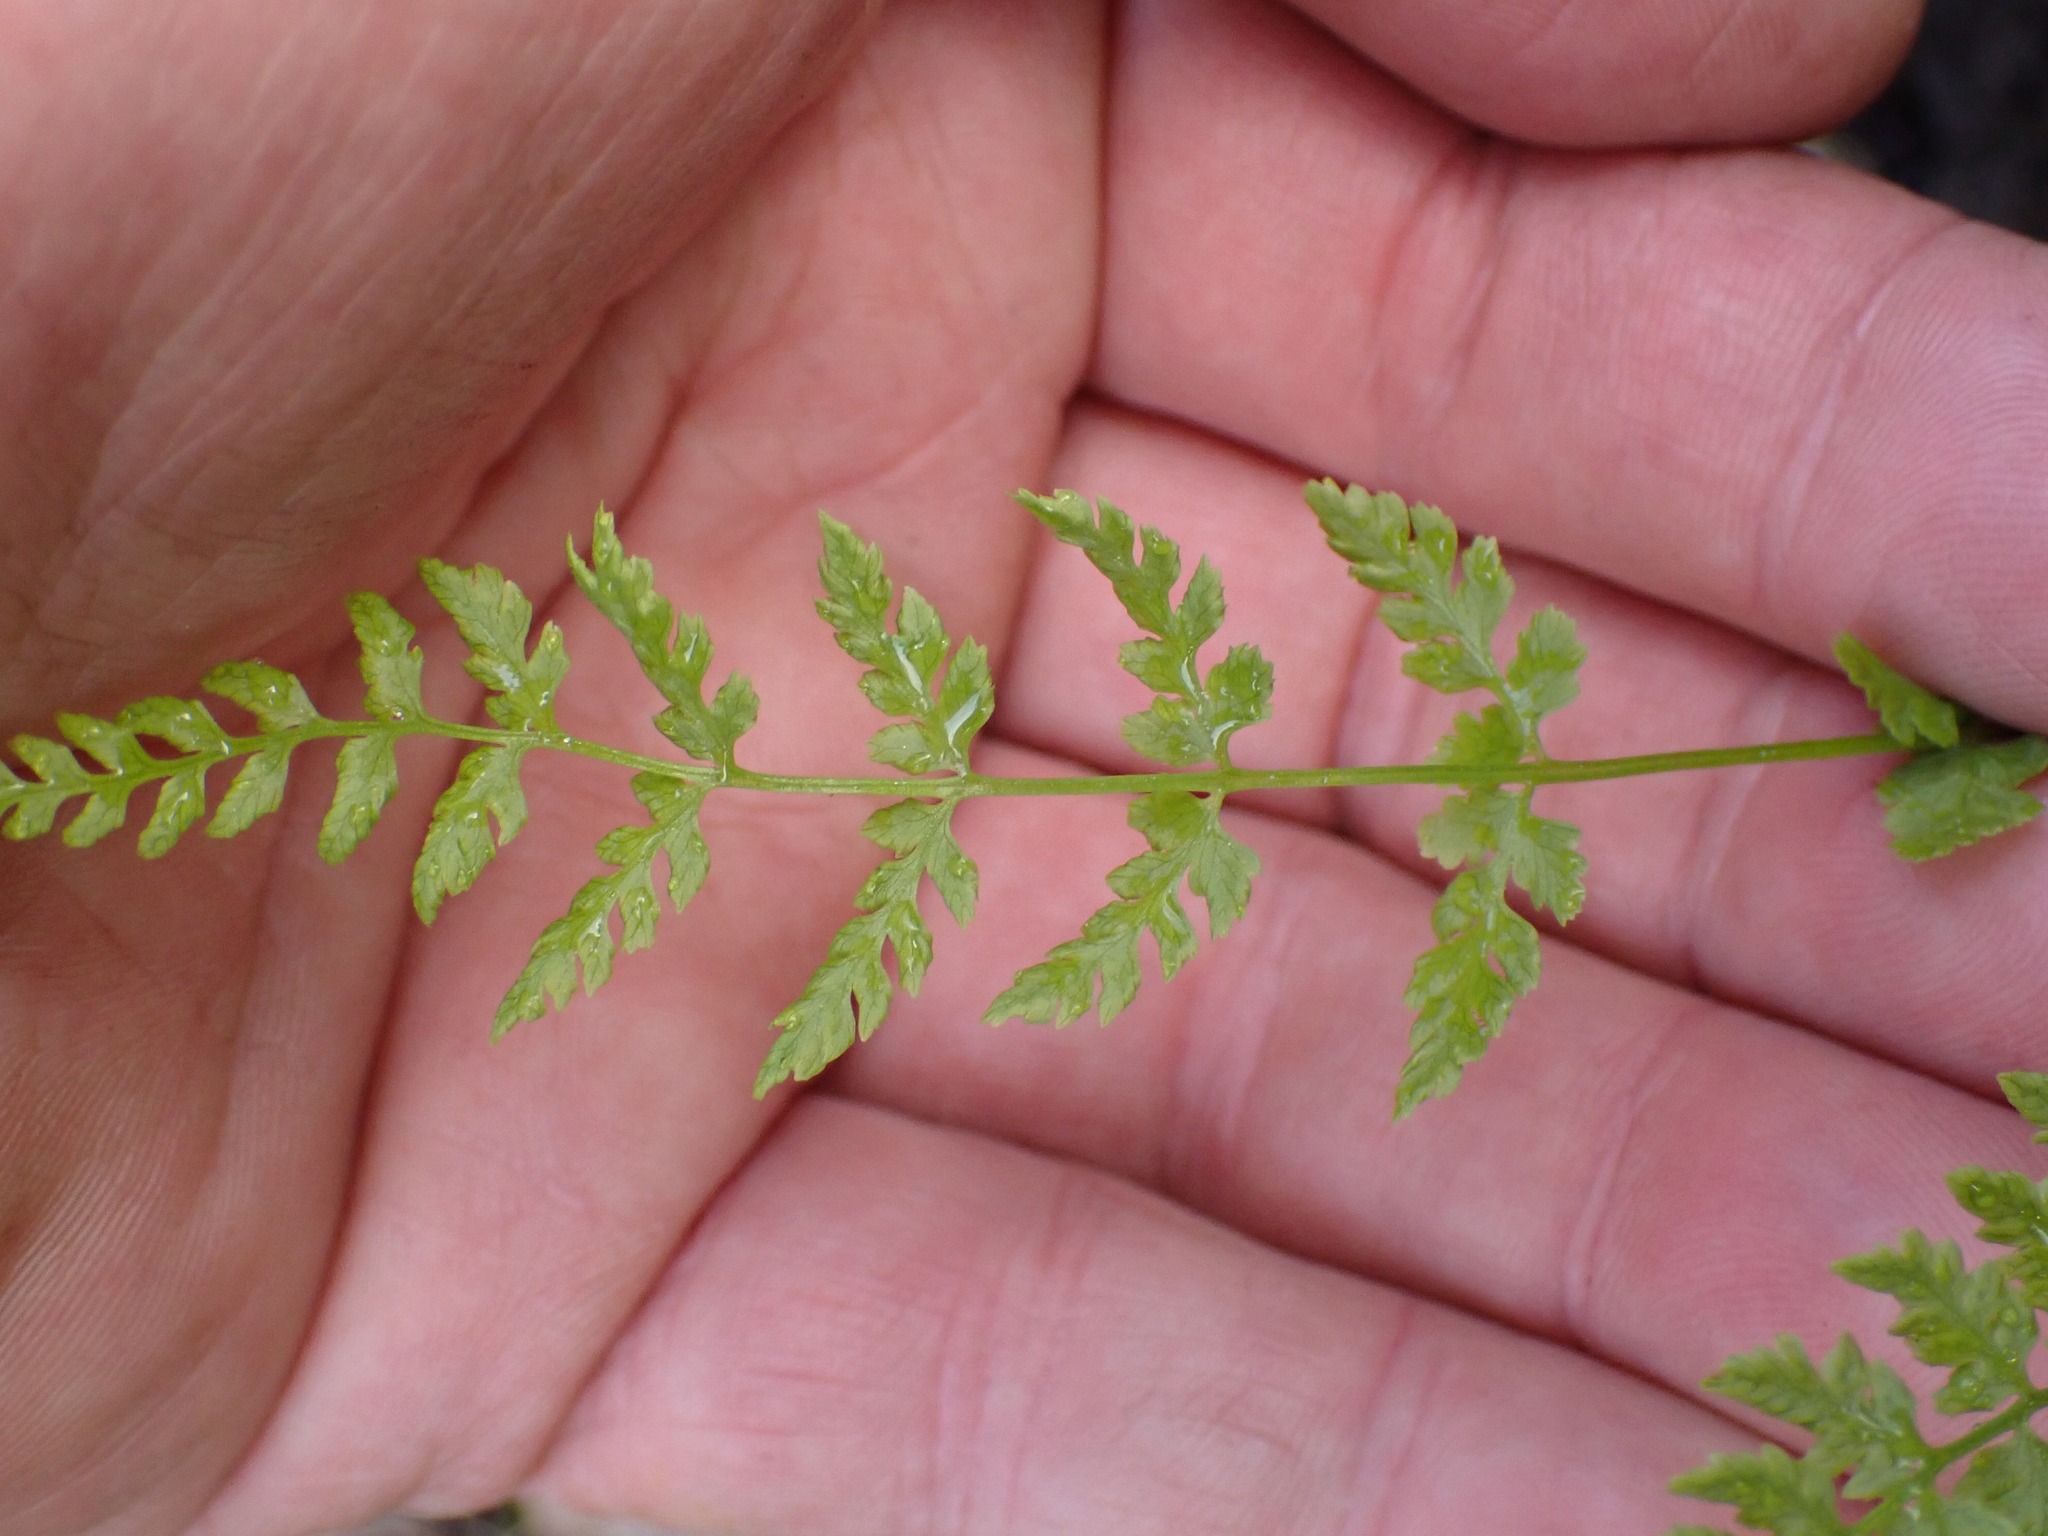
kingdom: Plantae
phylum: Tracheophyta
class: Polypodiopsida
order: Polypodiales
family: Cystopteridaceae
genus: Cystopteris
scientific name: Cystopteris fragilis
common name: Brittle bladder fern
